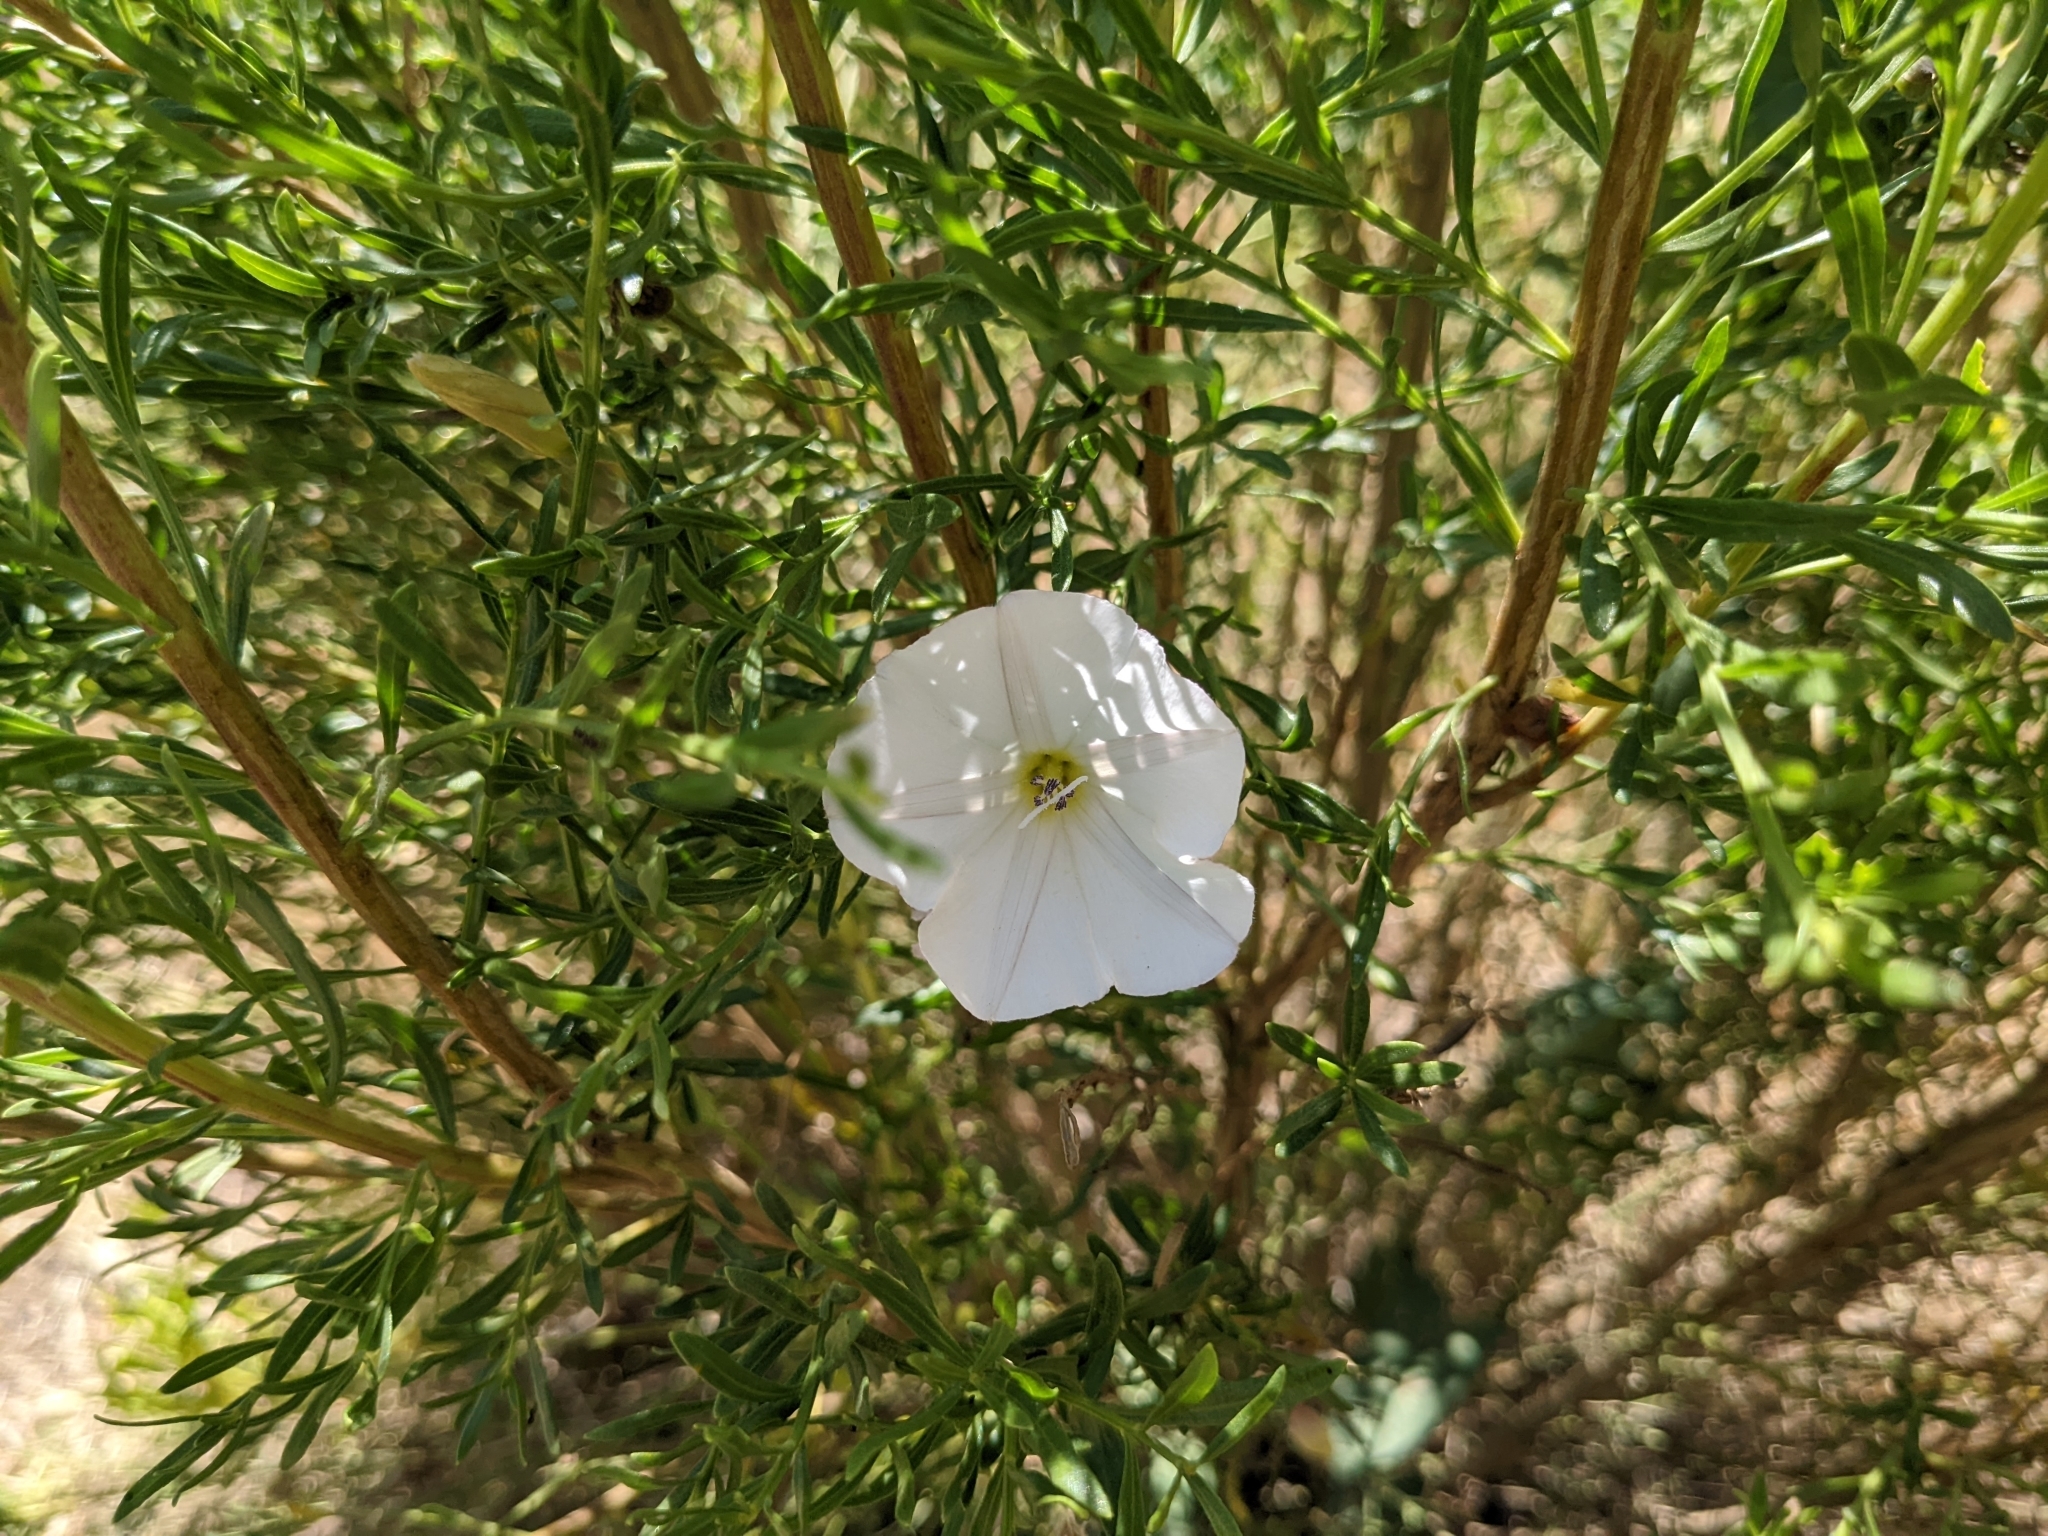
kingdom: Plantae
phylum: Tracheophyta
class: Magnoliopsida
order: Solanales
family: Convolvulaceae
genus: Calystegia
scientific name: Calystegia macrostegia
